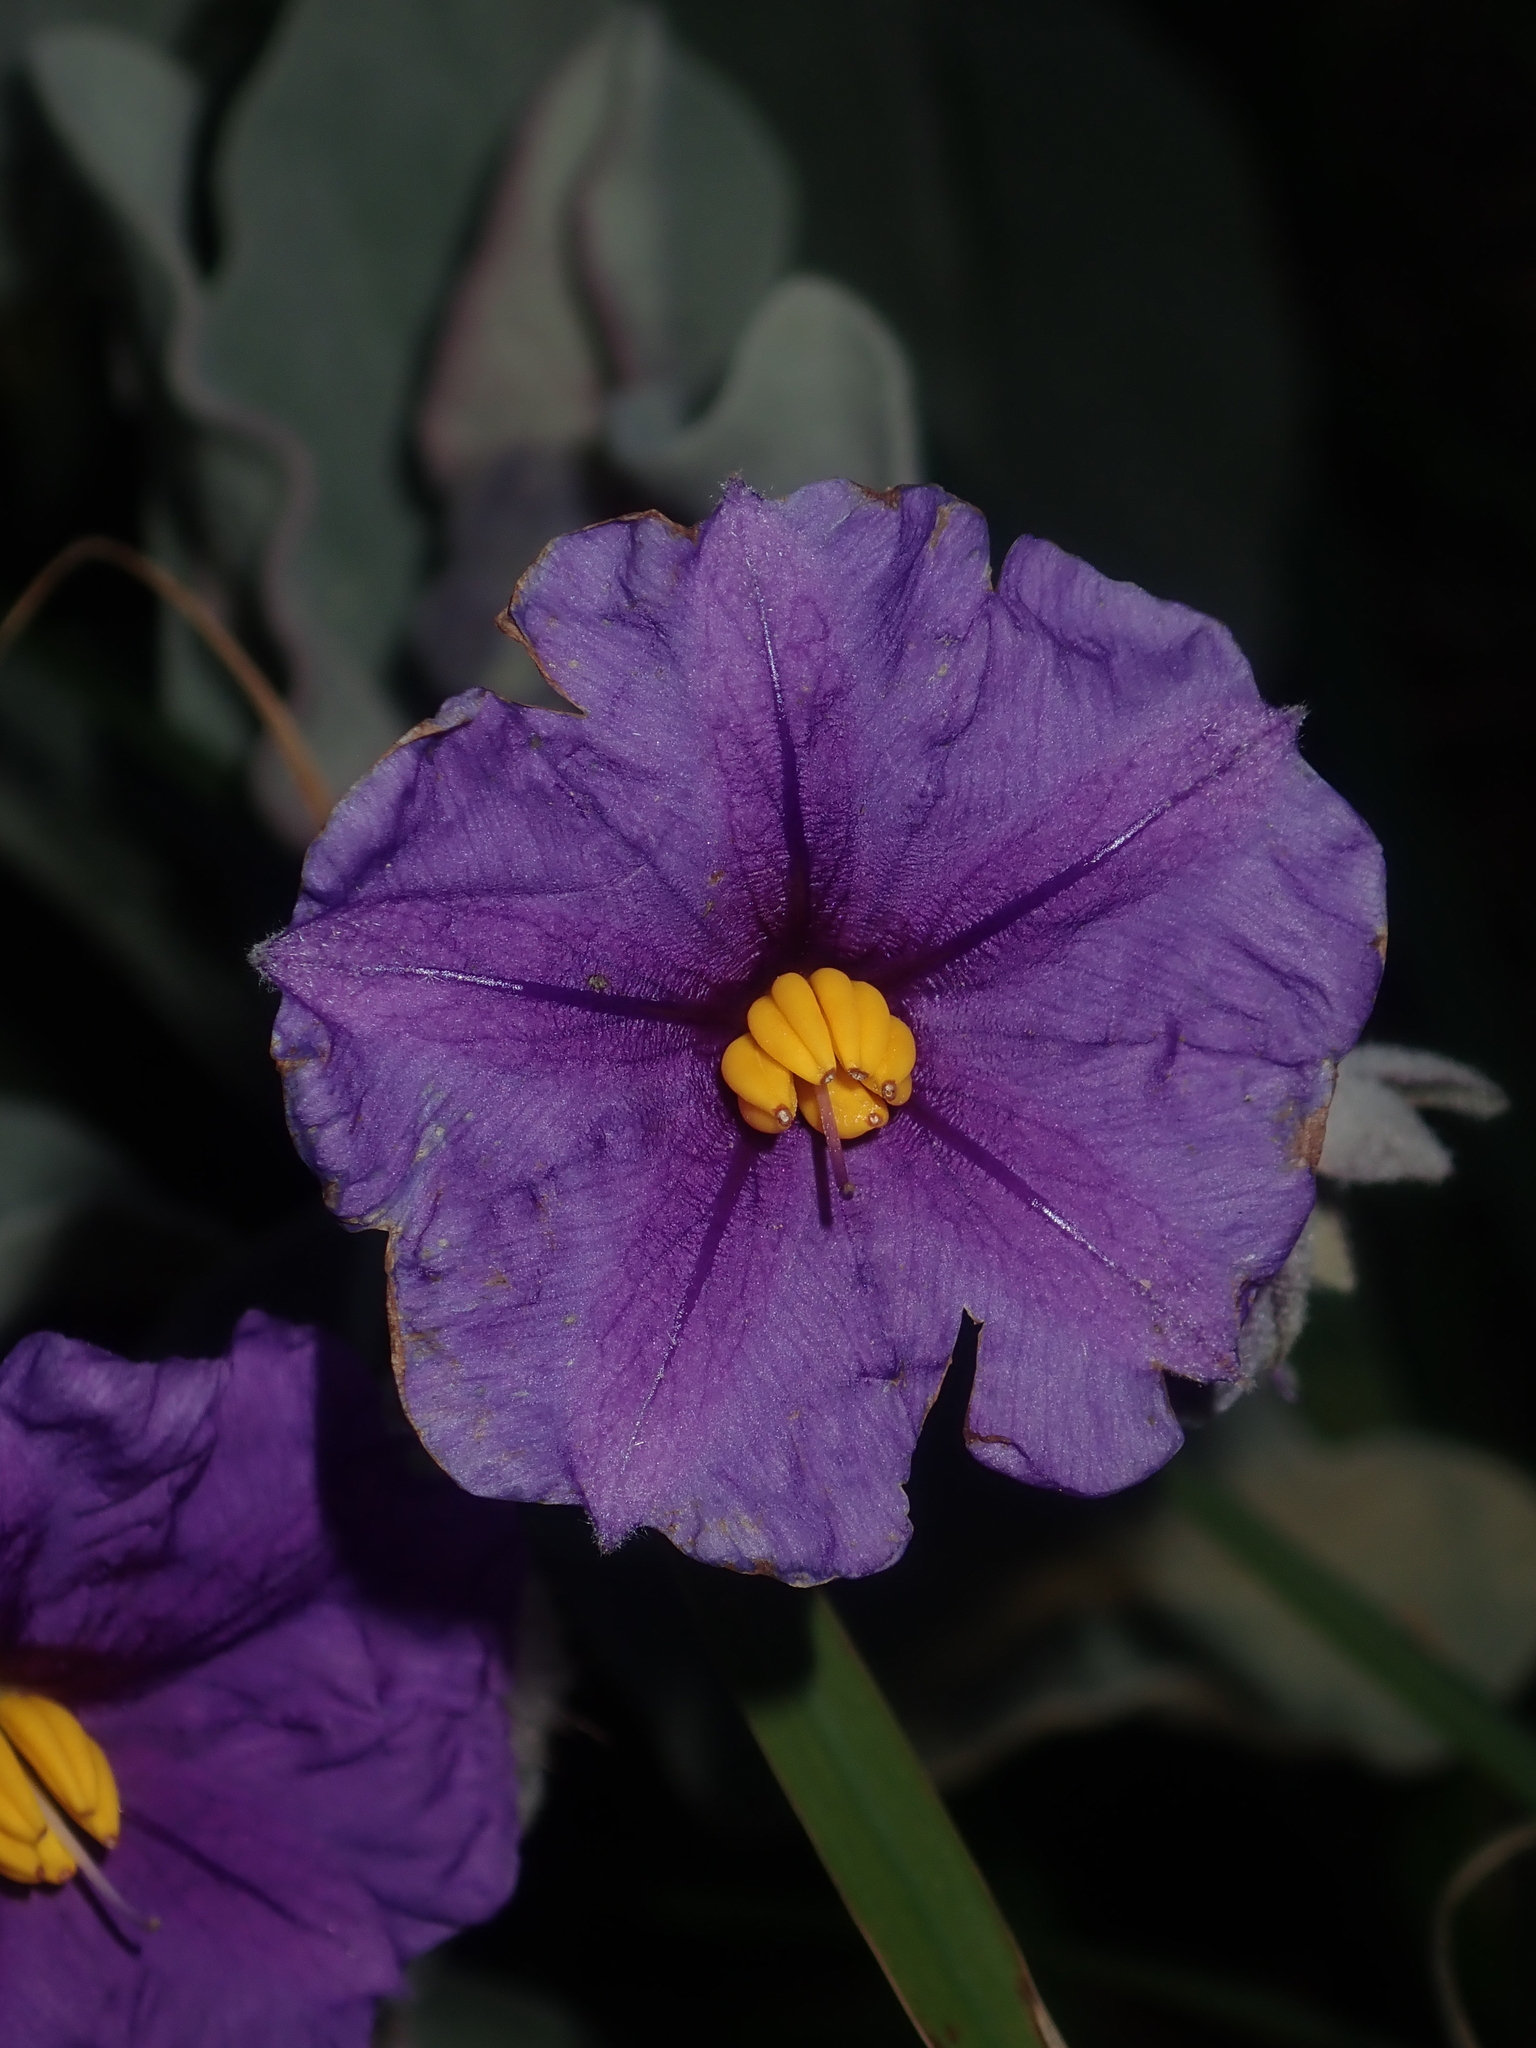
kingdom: Plantae
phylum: Tracheophyta
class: Magnoliopsida
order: Solanales
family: Solanaceae
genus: Solanum
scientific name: Solanum lasiophyllum
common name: Flannelbush
